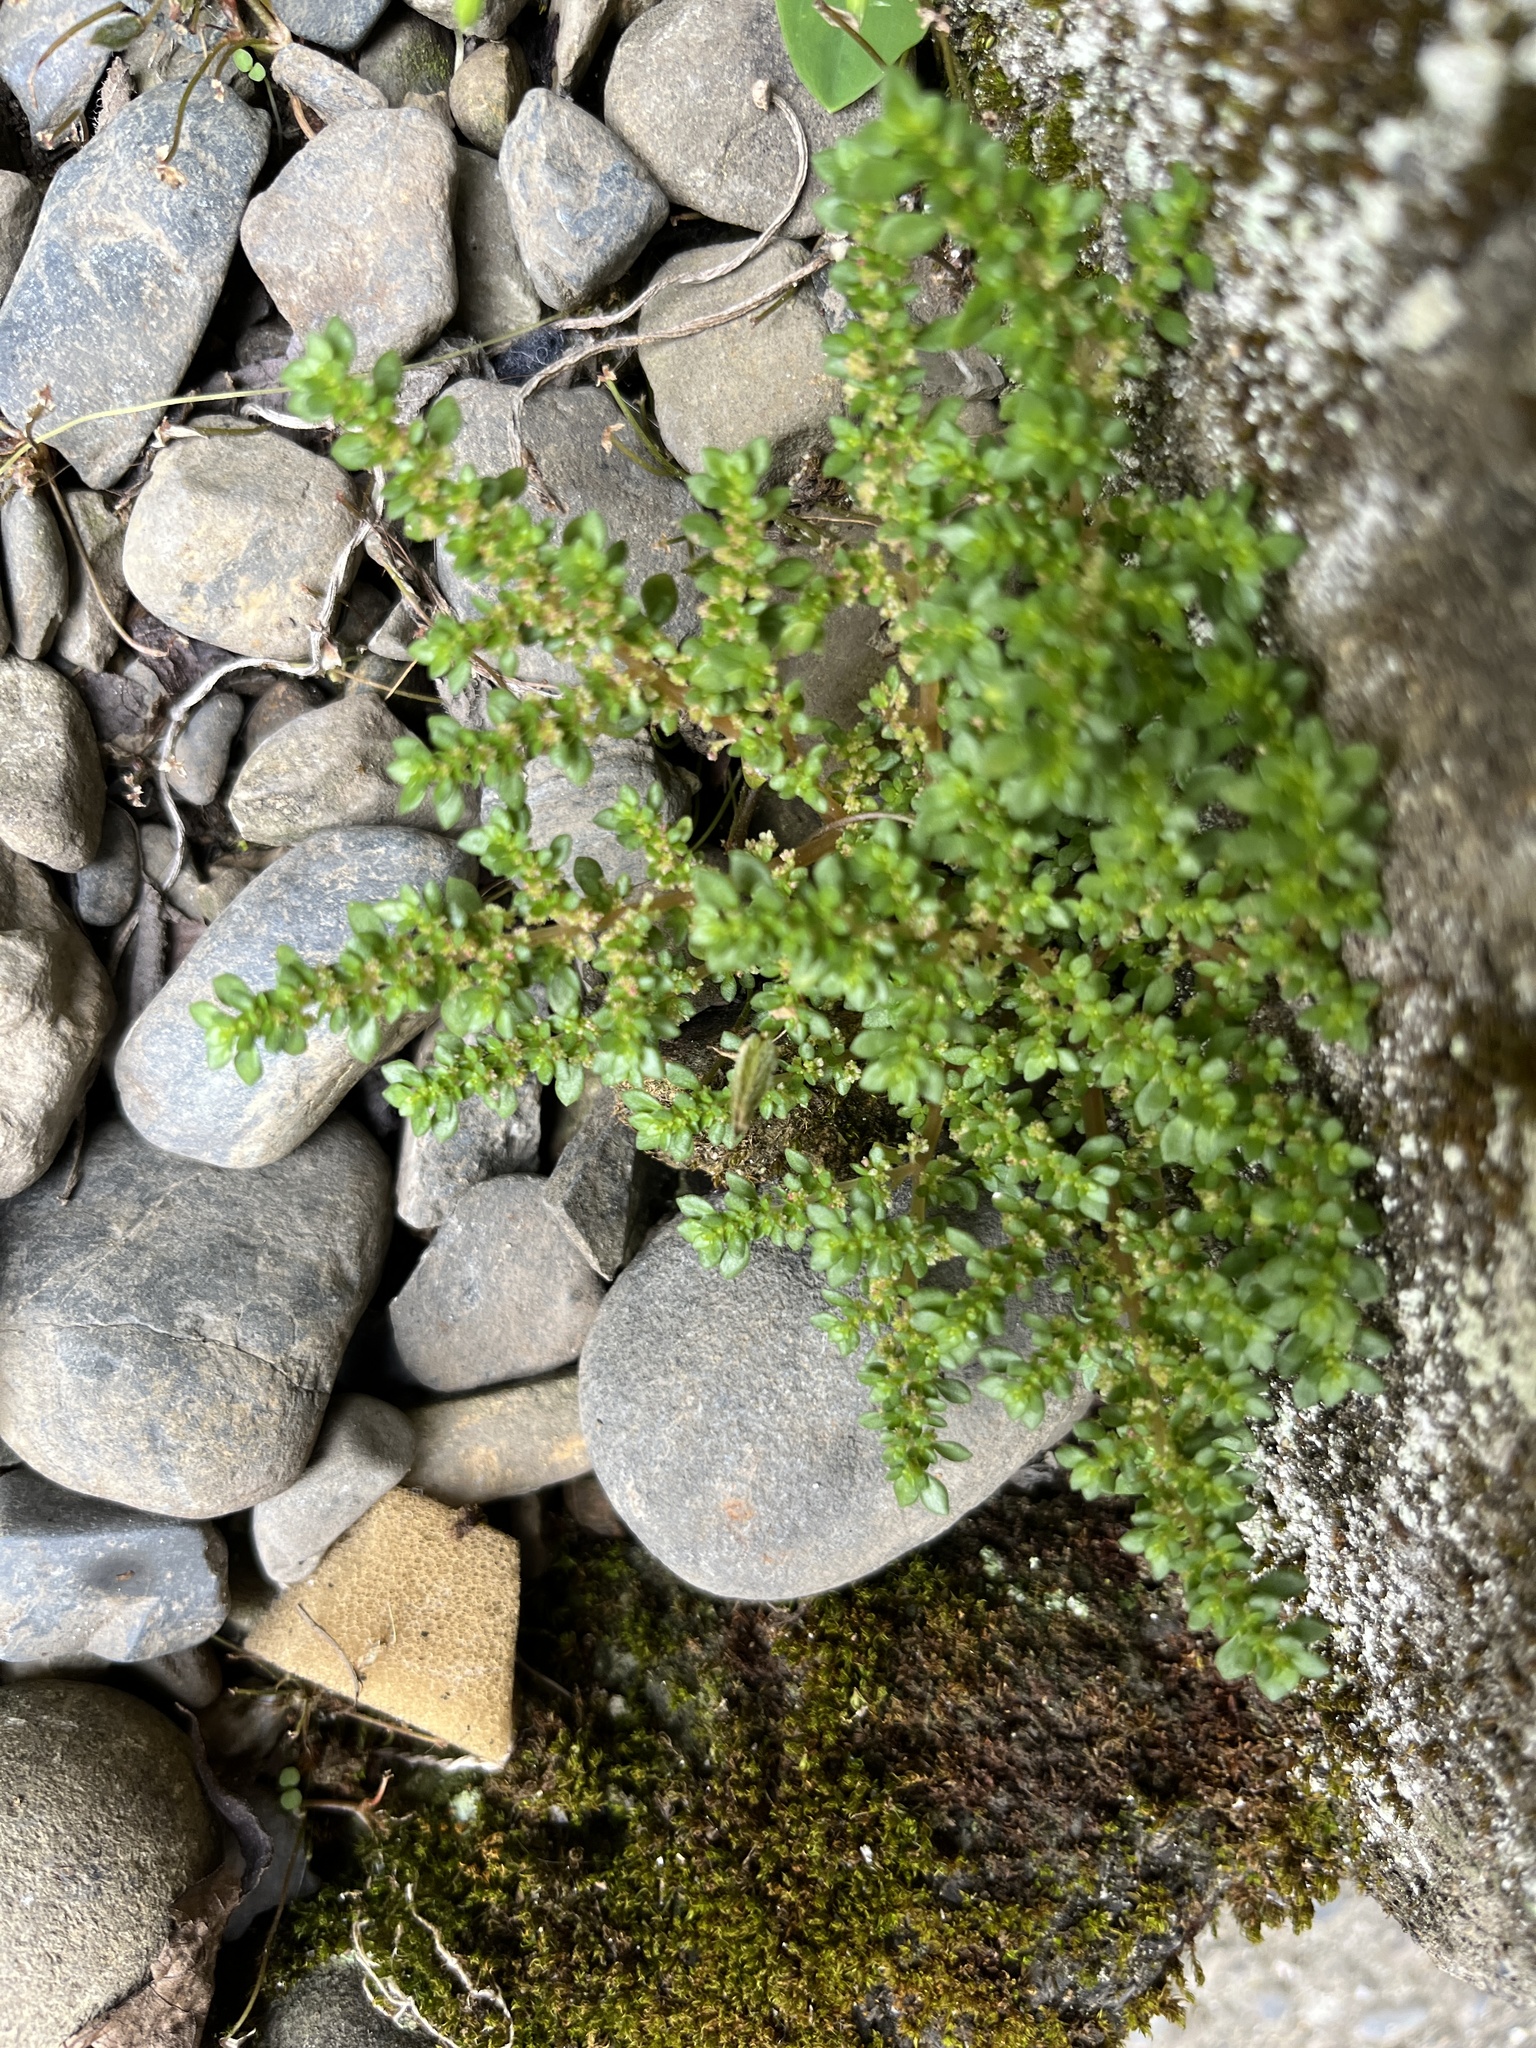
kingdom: Plantae
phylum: Tracheophyta
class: Magnoliopsida
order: Rosales
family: Urticaceae
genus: Pilea
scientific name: Pilea microphylla
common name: Artillery-plant
